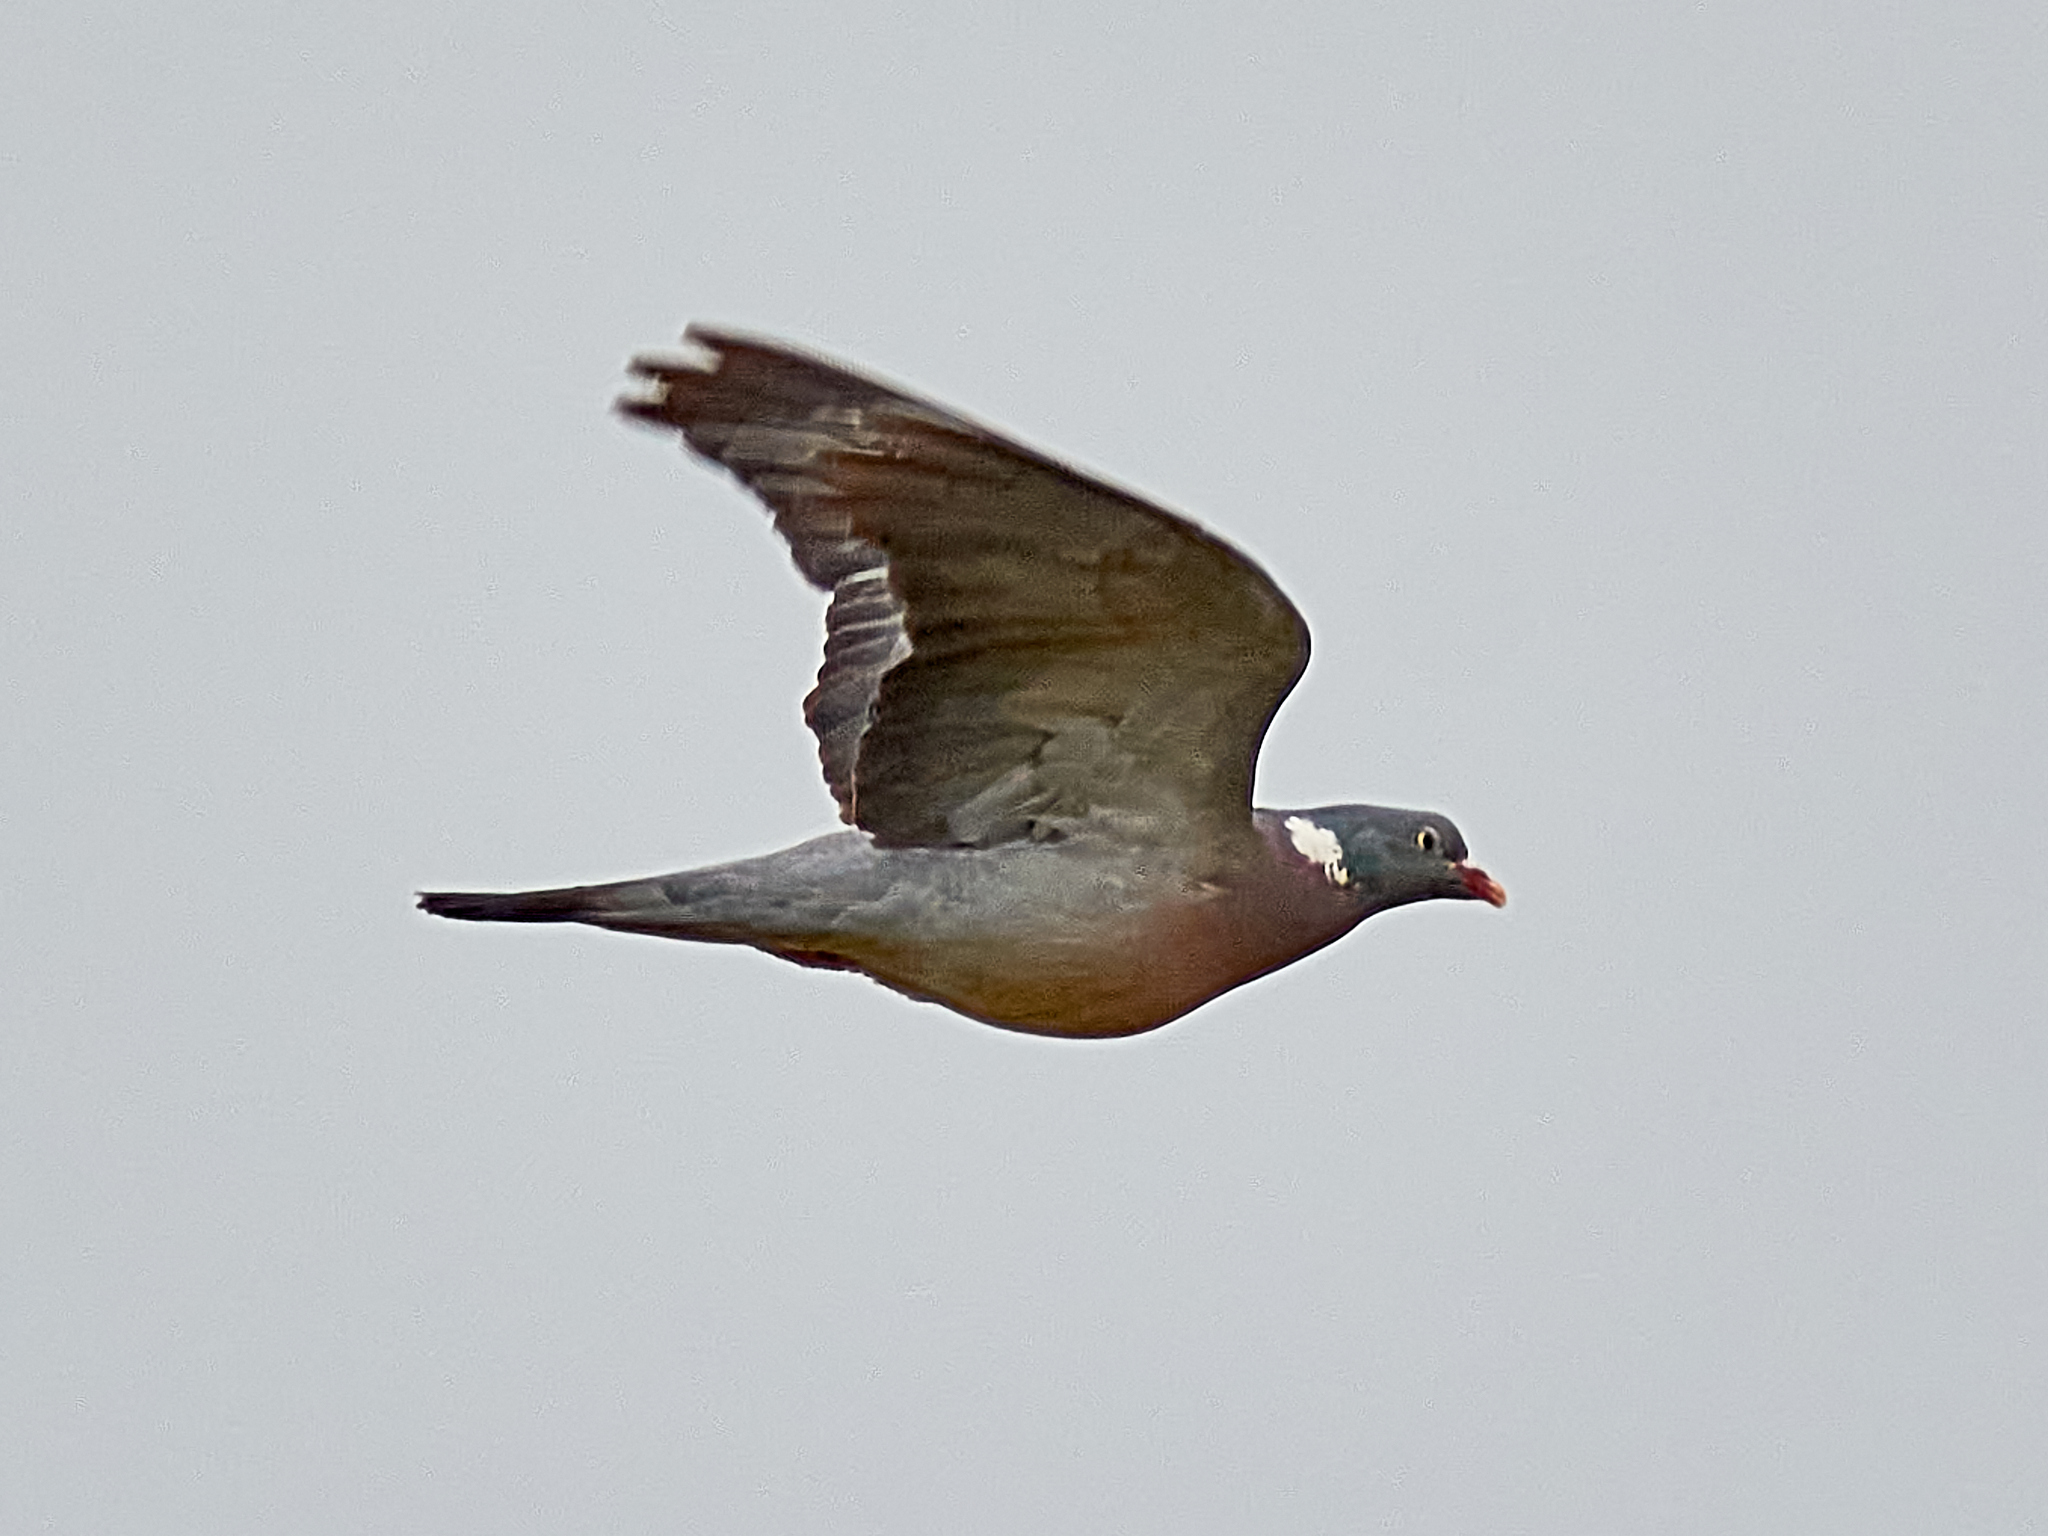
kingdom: Animalia
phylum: Chordata
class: Aves
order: Columbiformes
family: Columbidae
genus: Columba
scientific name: Columba palumbus
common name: Common wood pigeon
